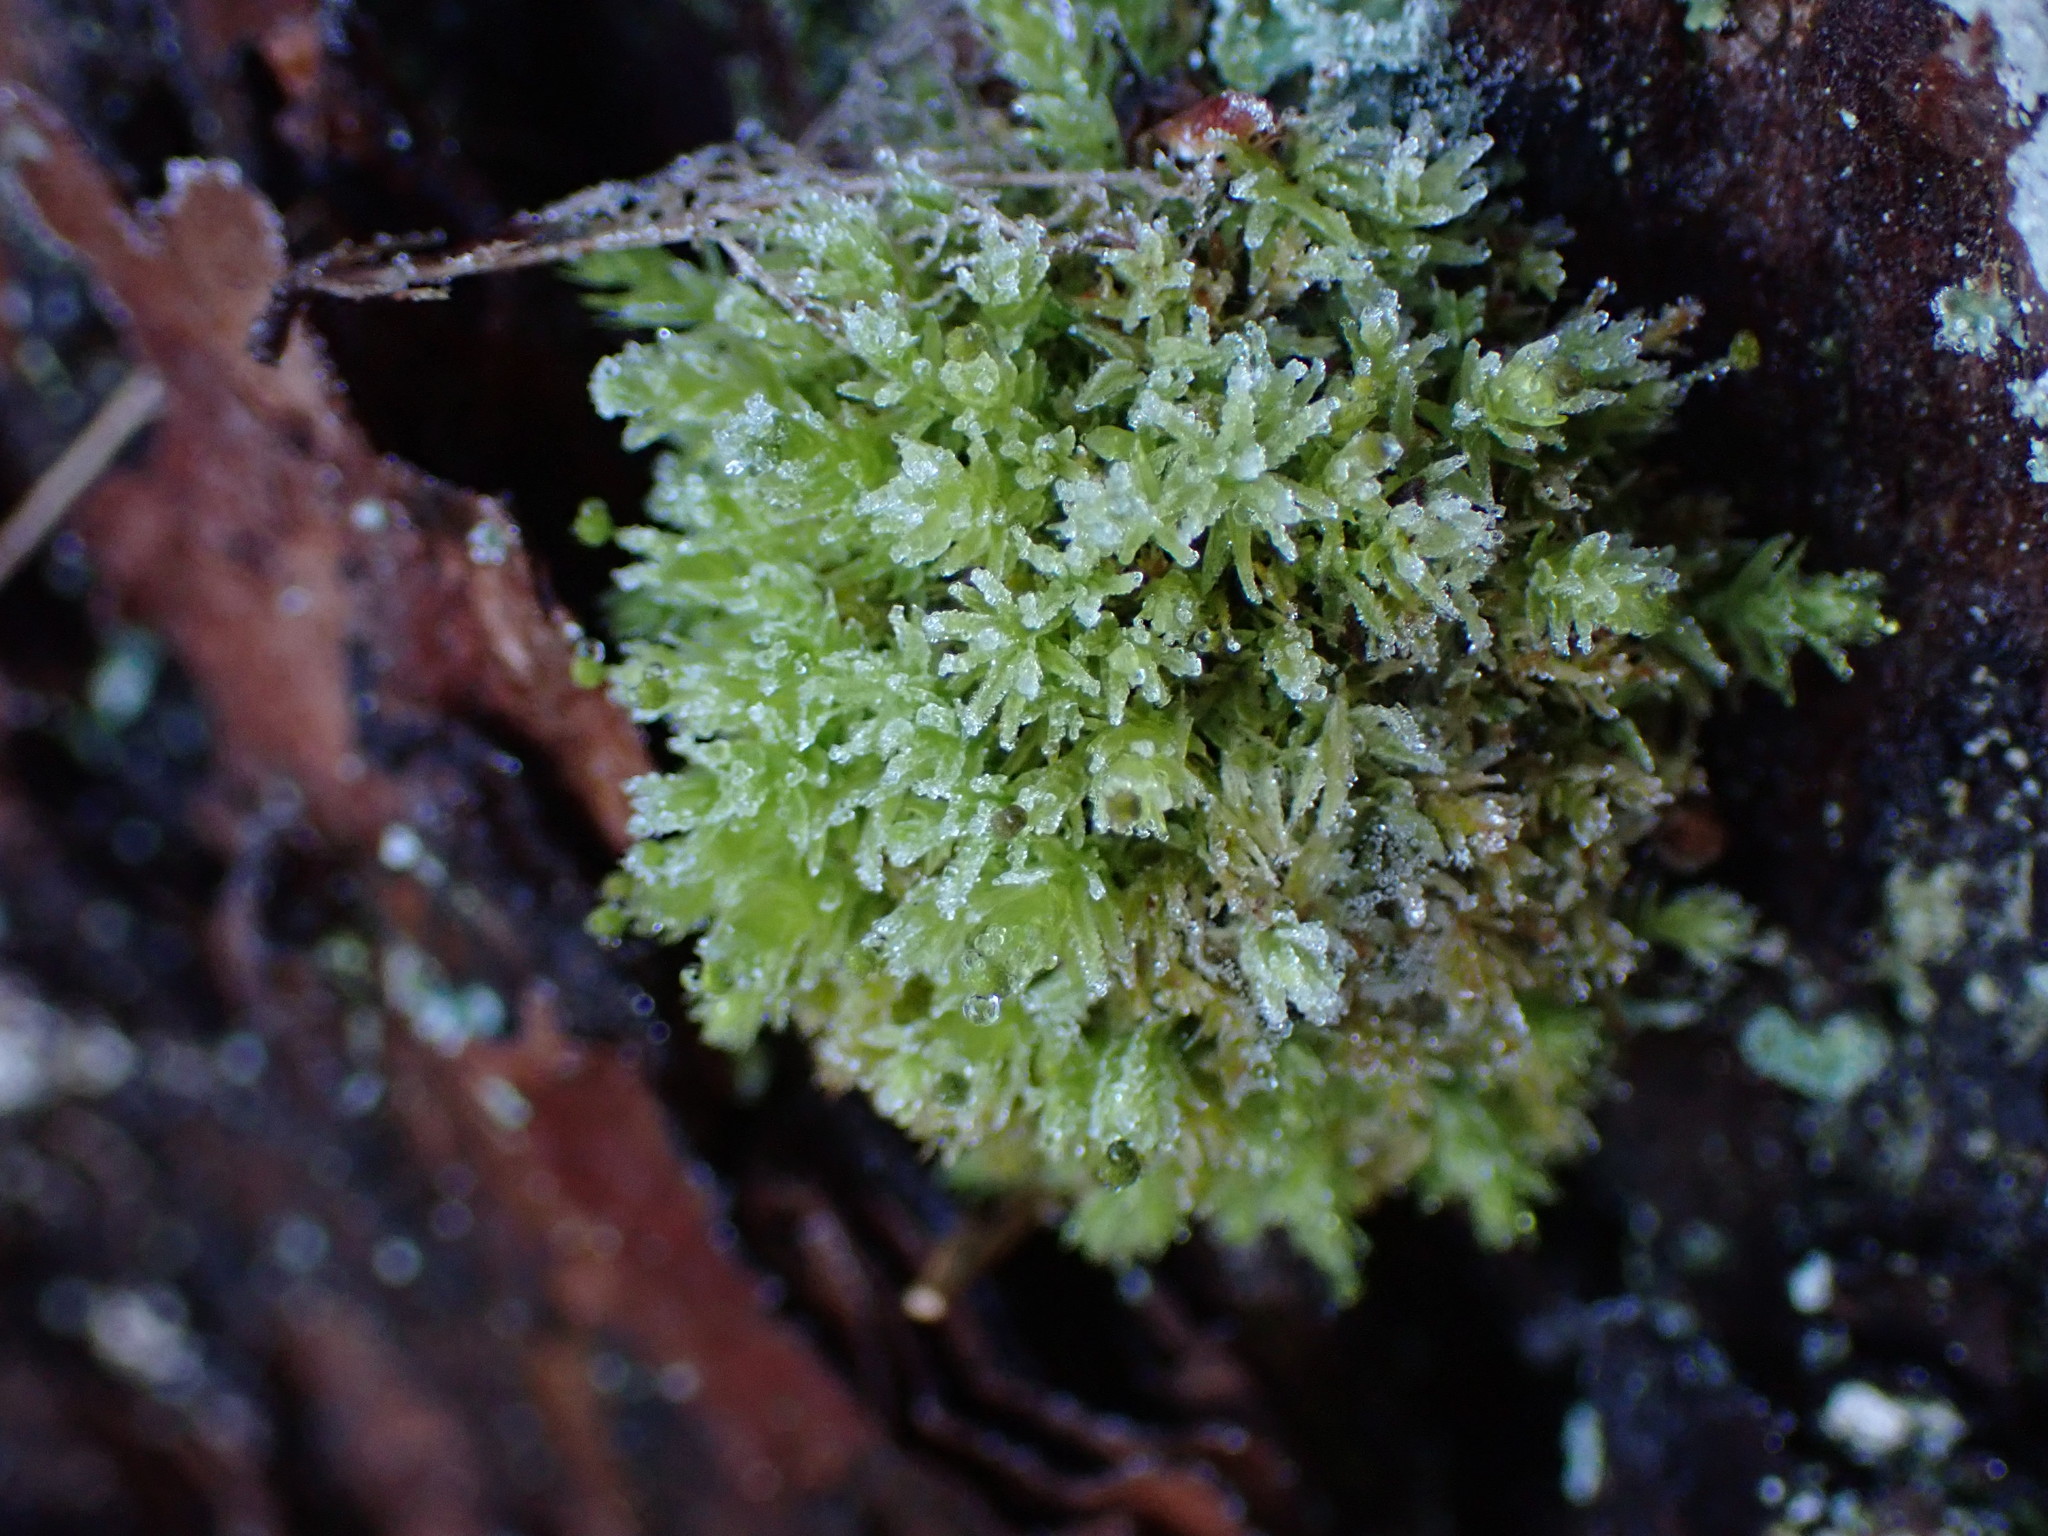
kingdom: Plantae
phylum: Bryophyta
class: Bryopsida
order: Aulacomniales
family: Aulacomniaceae
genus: Aulacomnium
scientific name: Aulacomnium androgynum
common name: Little groove moss
